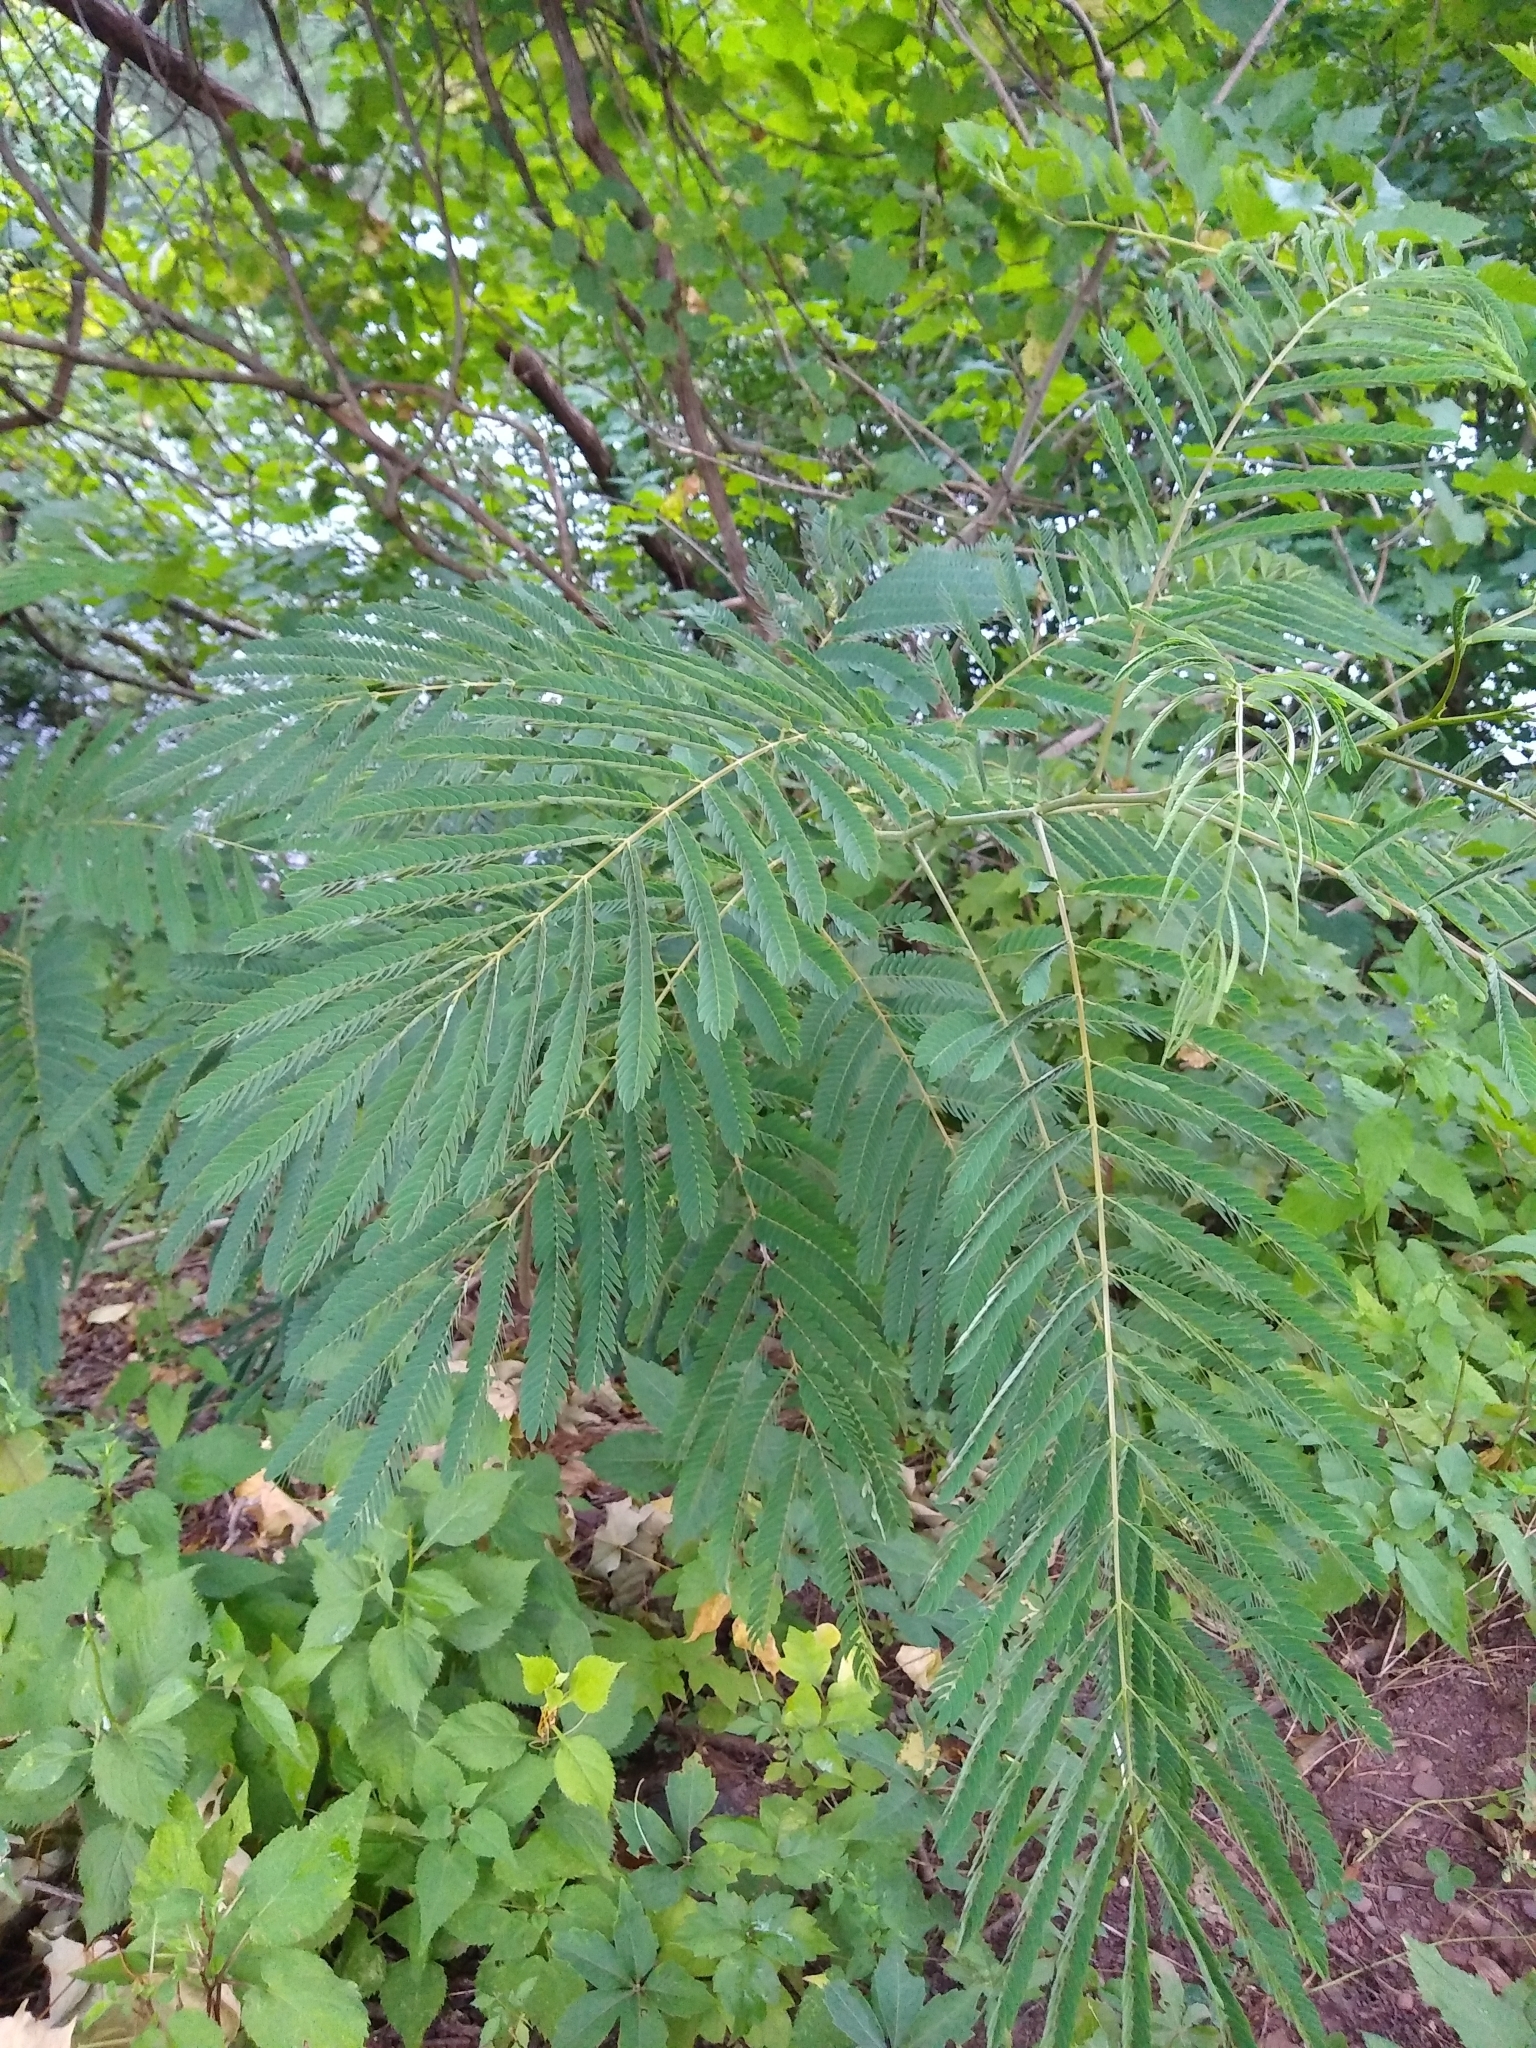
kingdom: Plantae
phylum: Tracheophyta
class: Magnoliopsida
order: Fabales
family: Fabaceae
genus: Albizia
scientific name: Albizia julibrissin
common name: Silktree
